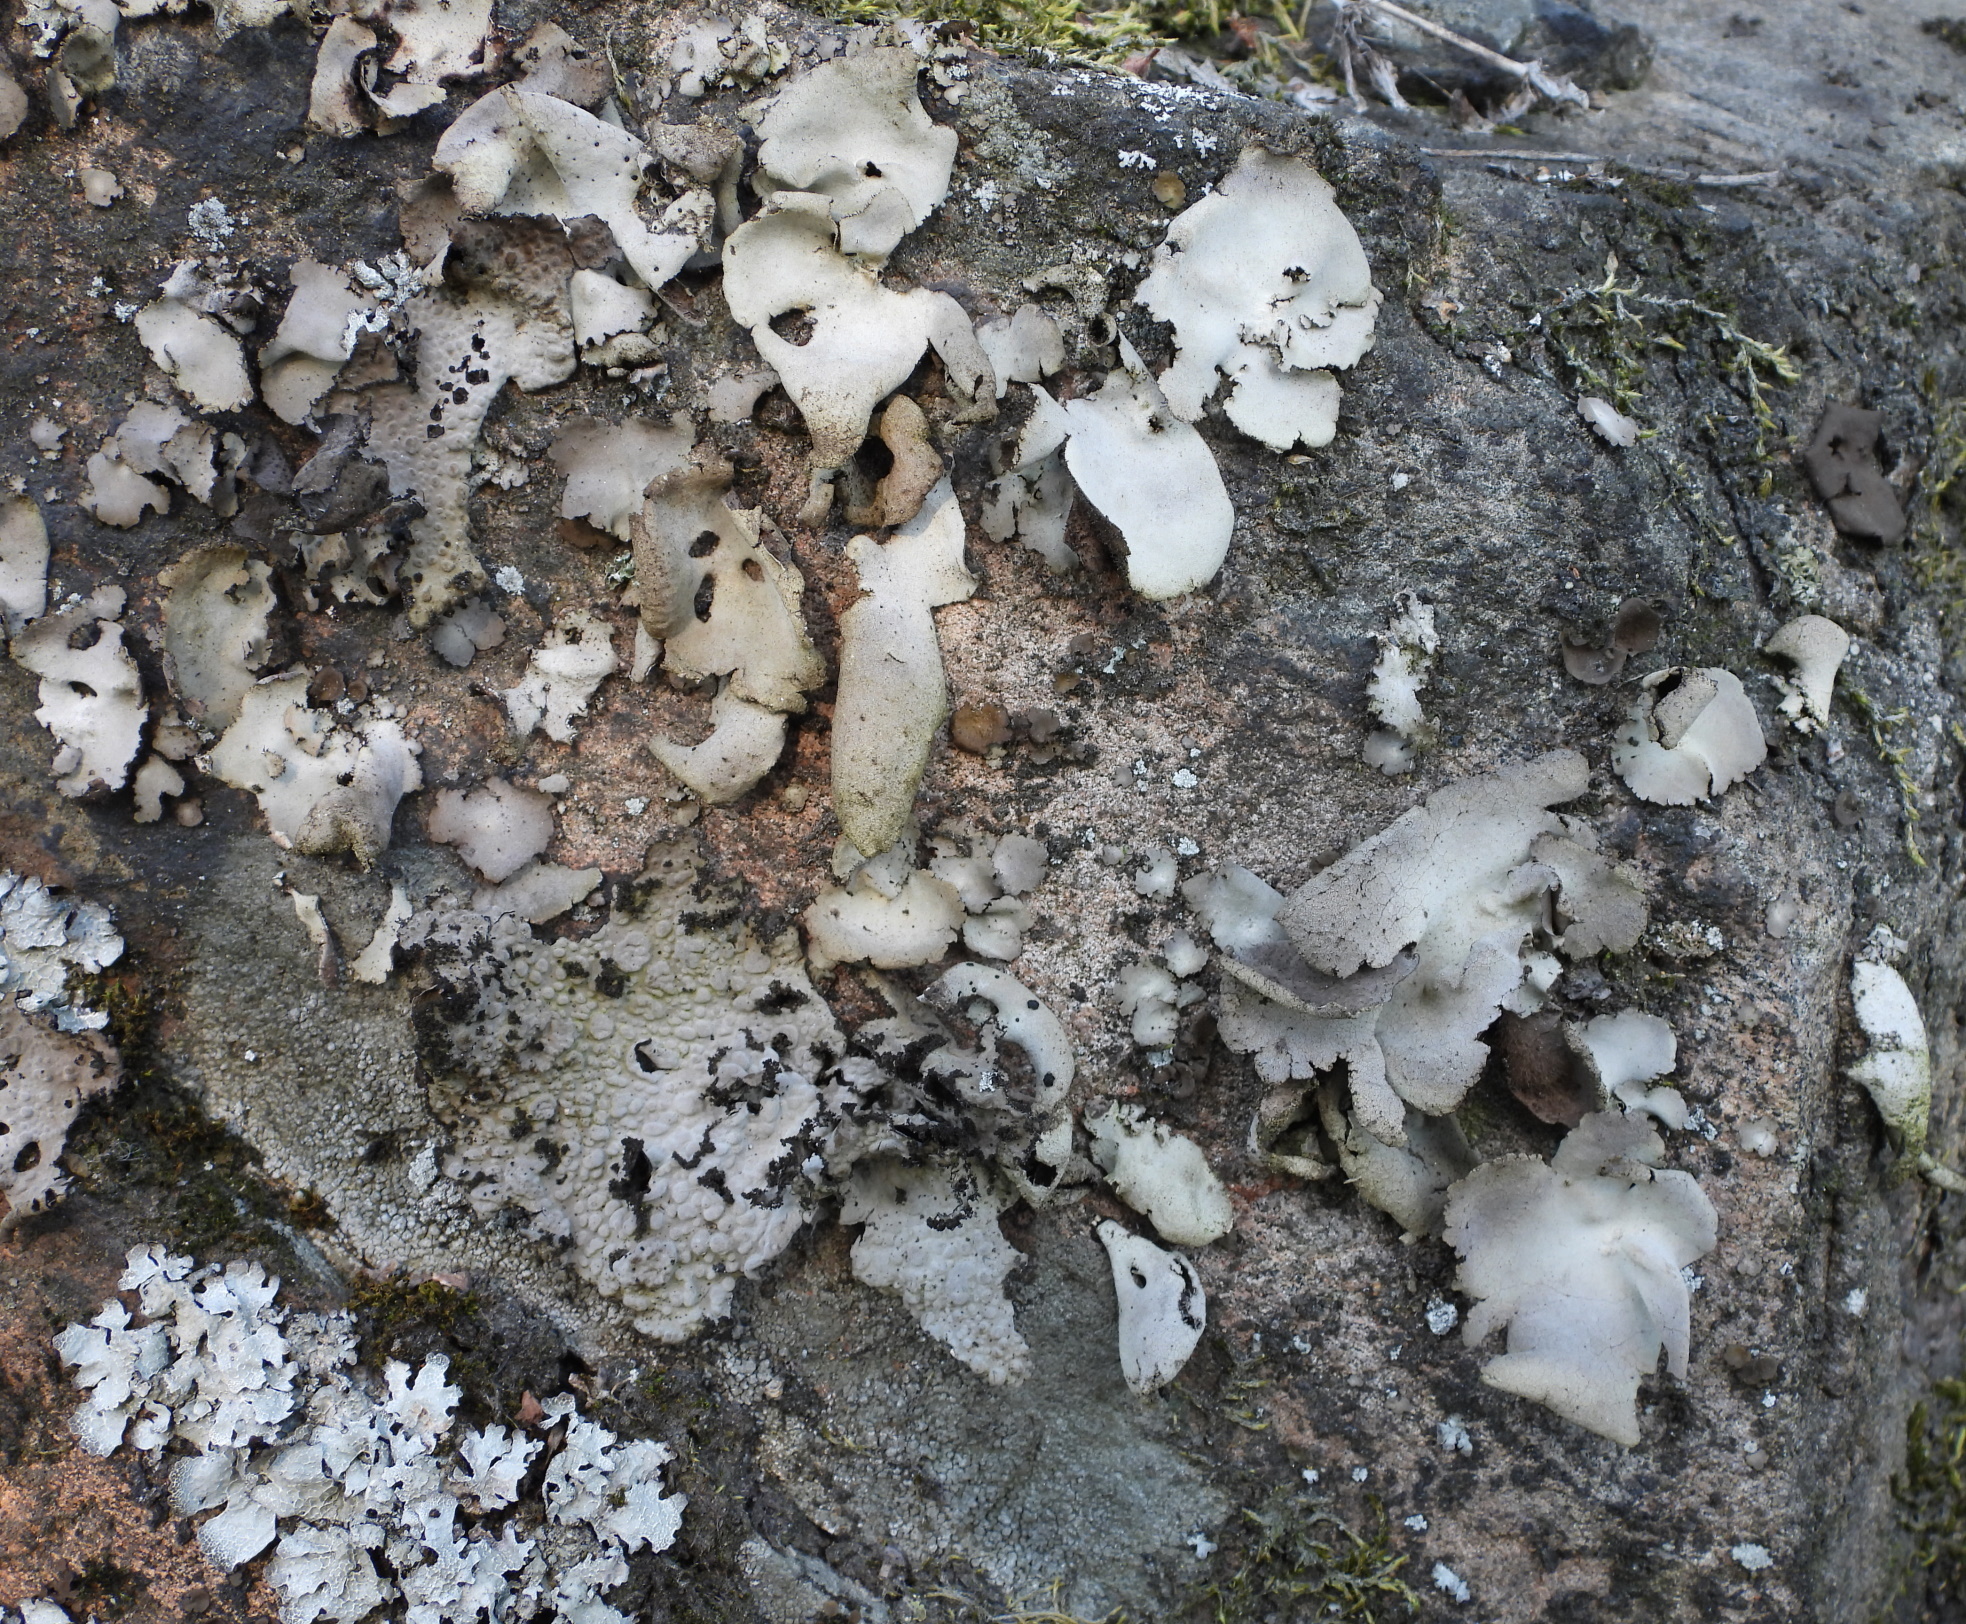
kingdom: Fungi
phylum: Ascomycota
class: Lecanoromycetes
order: Umbilicariales
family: Umbilicariaceae
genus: Umbilicaria
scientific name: Umbilicaria hirsuta
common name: Granulating rocktripe lichen
